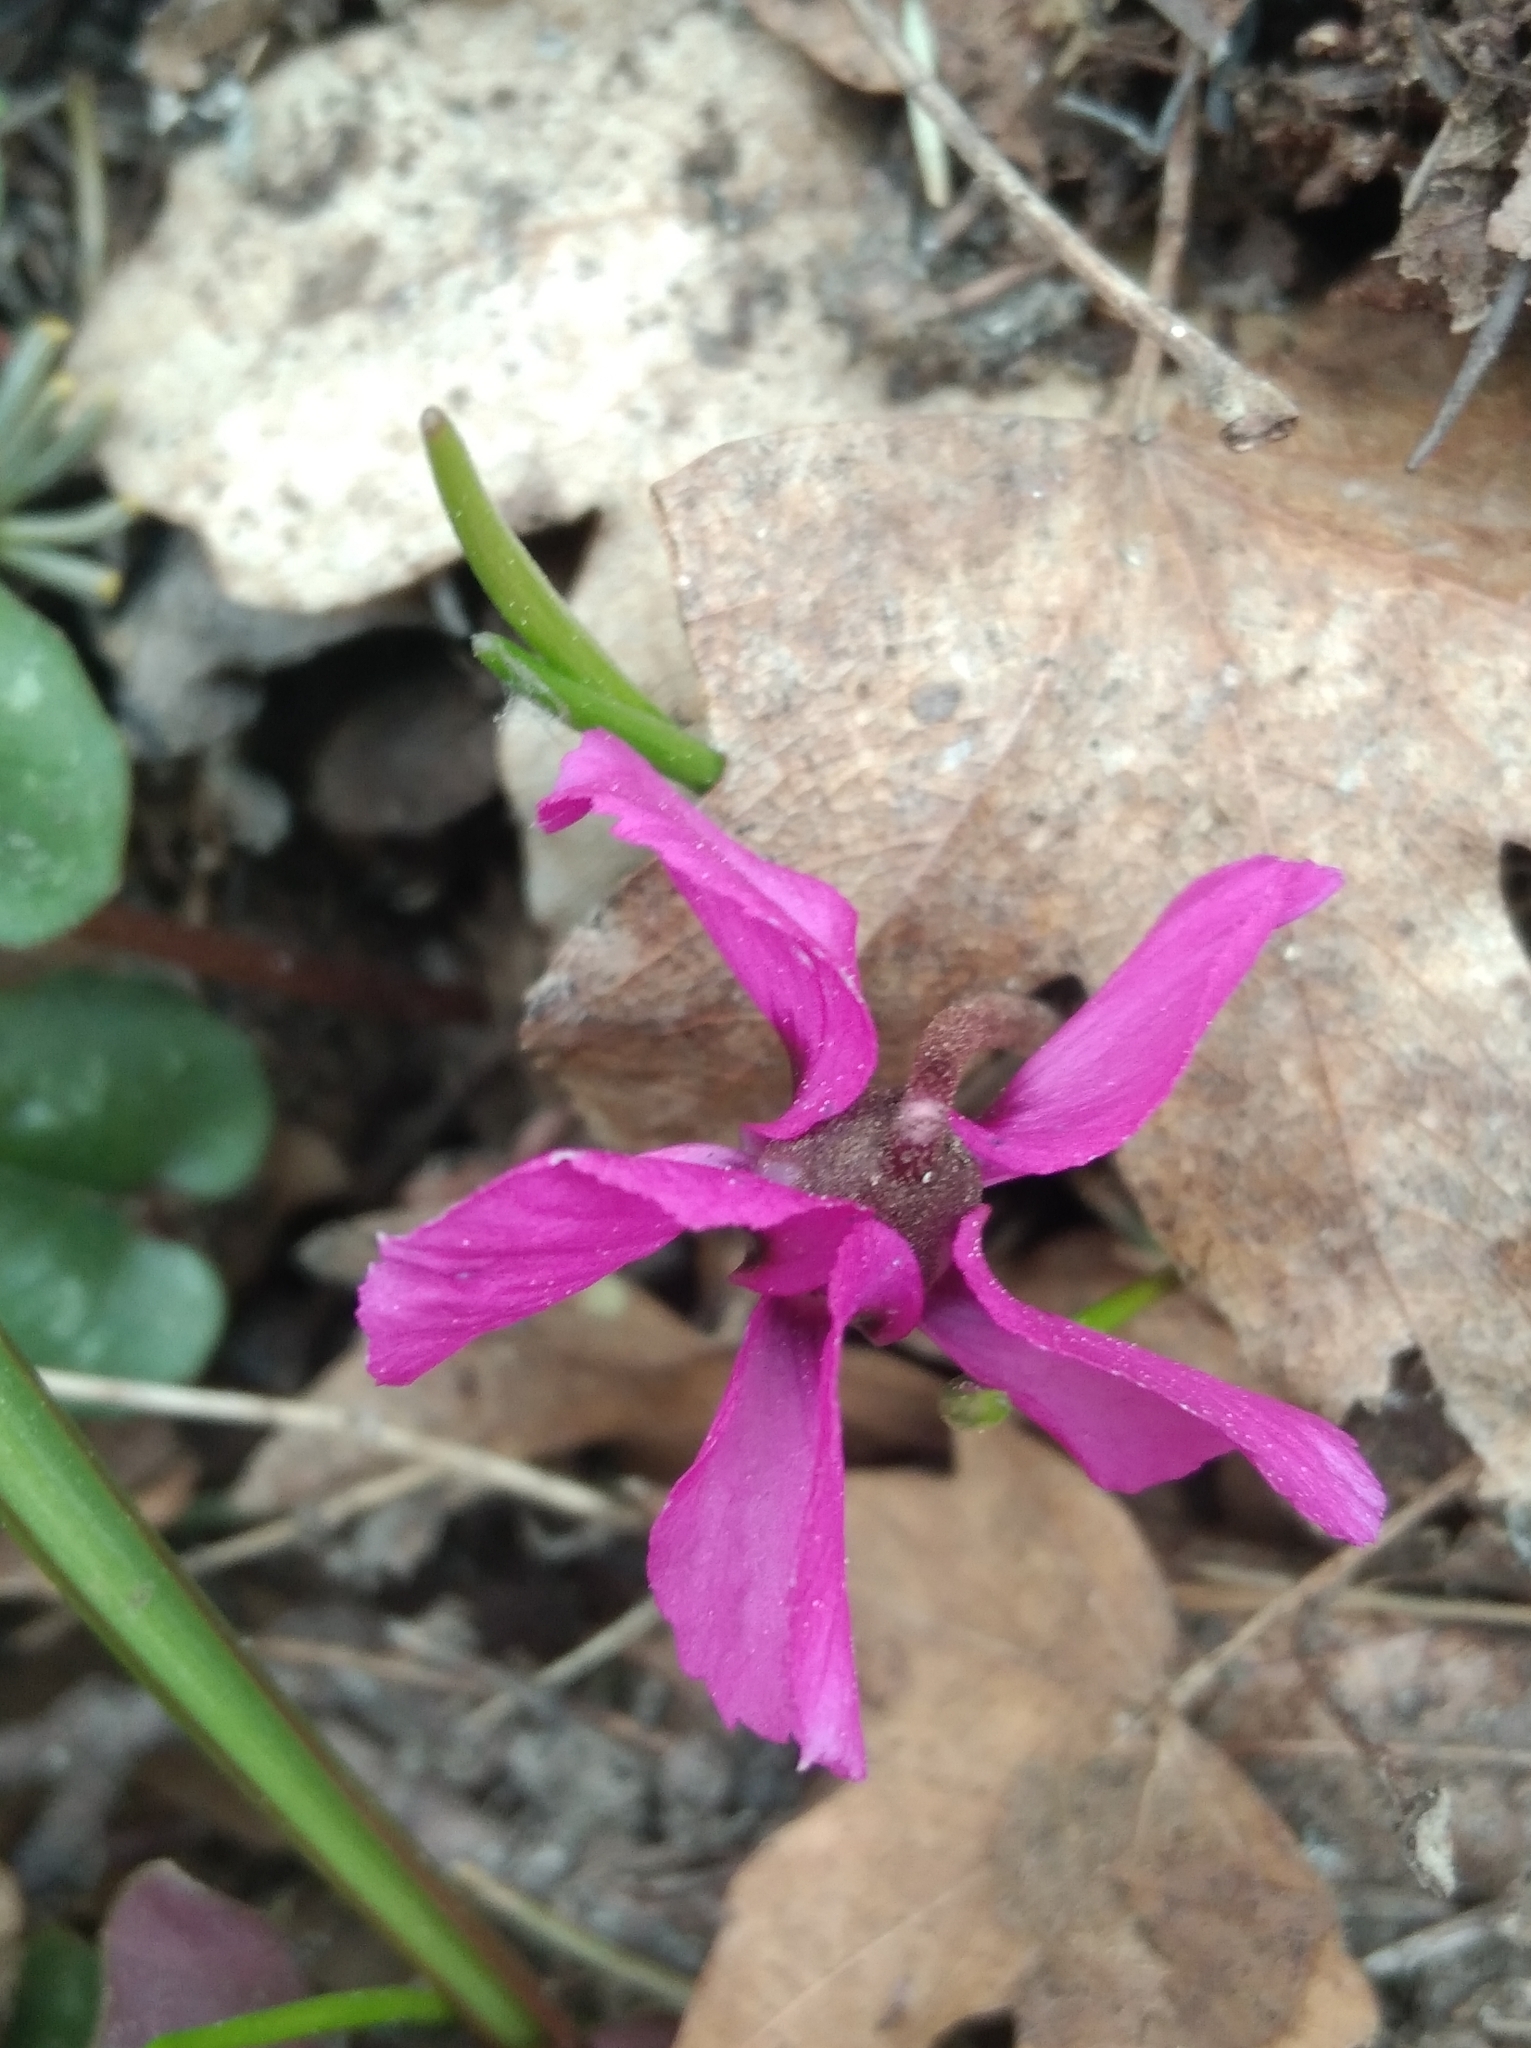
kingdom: Plantae
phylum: Tracheophyta
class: Magnoliopsida
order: Ericales
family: Primulaceae
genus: Cyclamen
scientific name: Cyclamen alpinum
